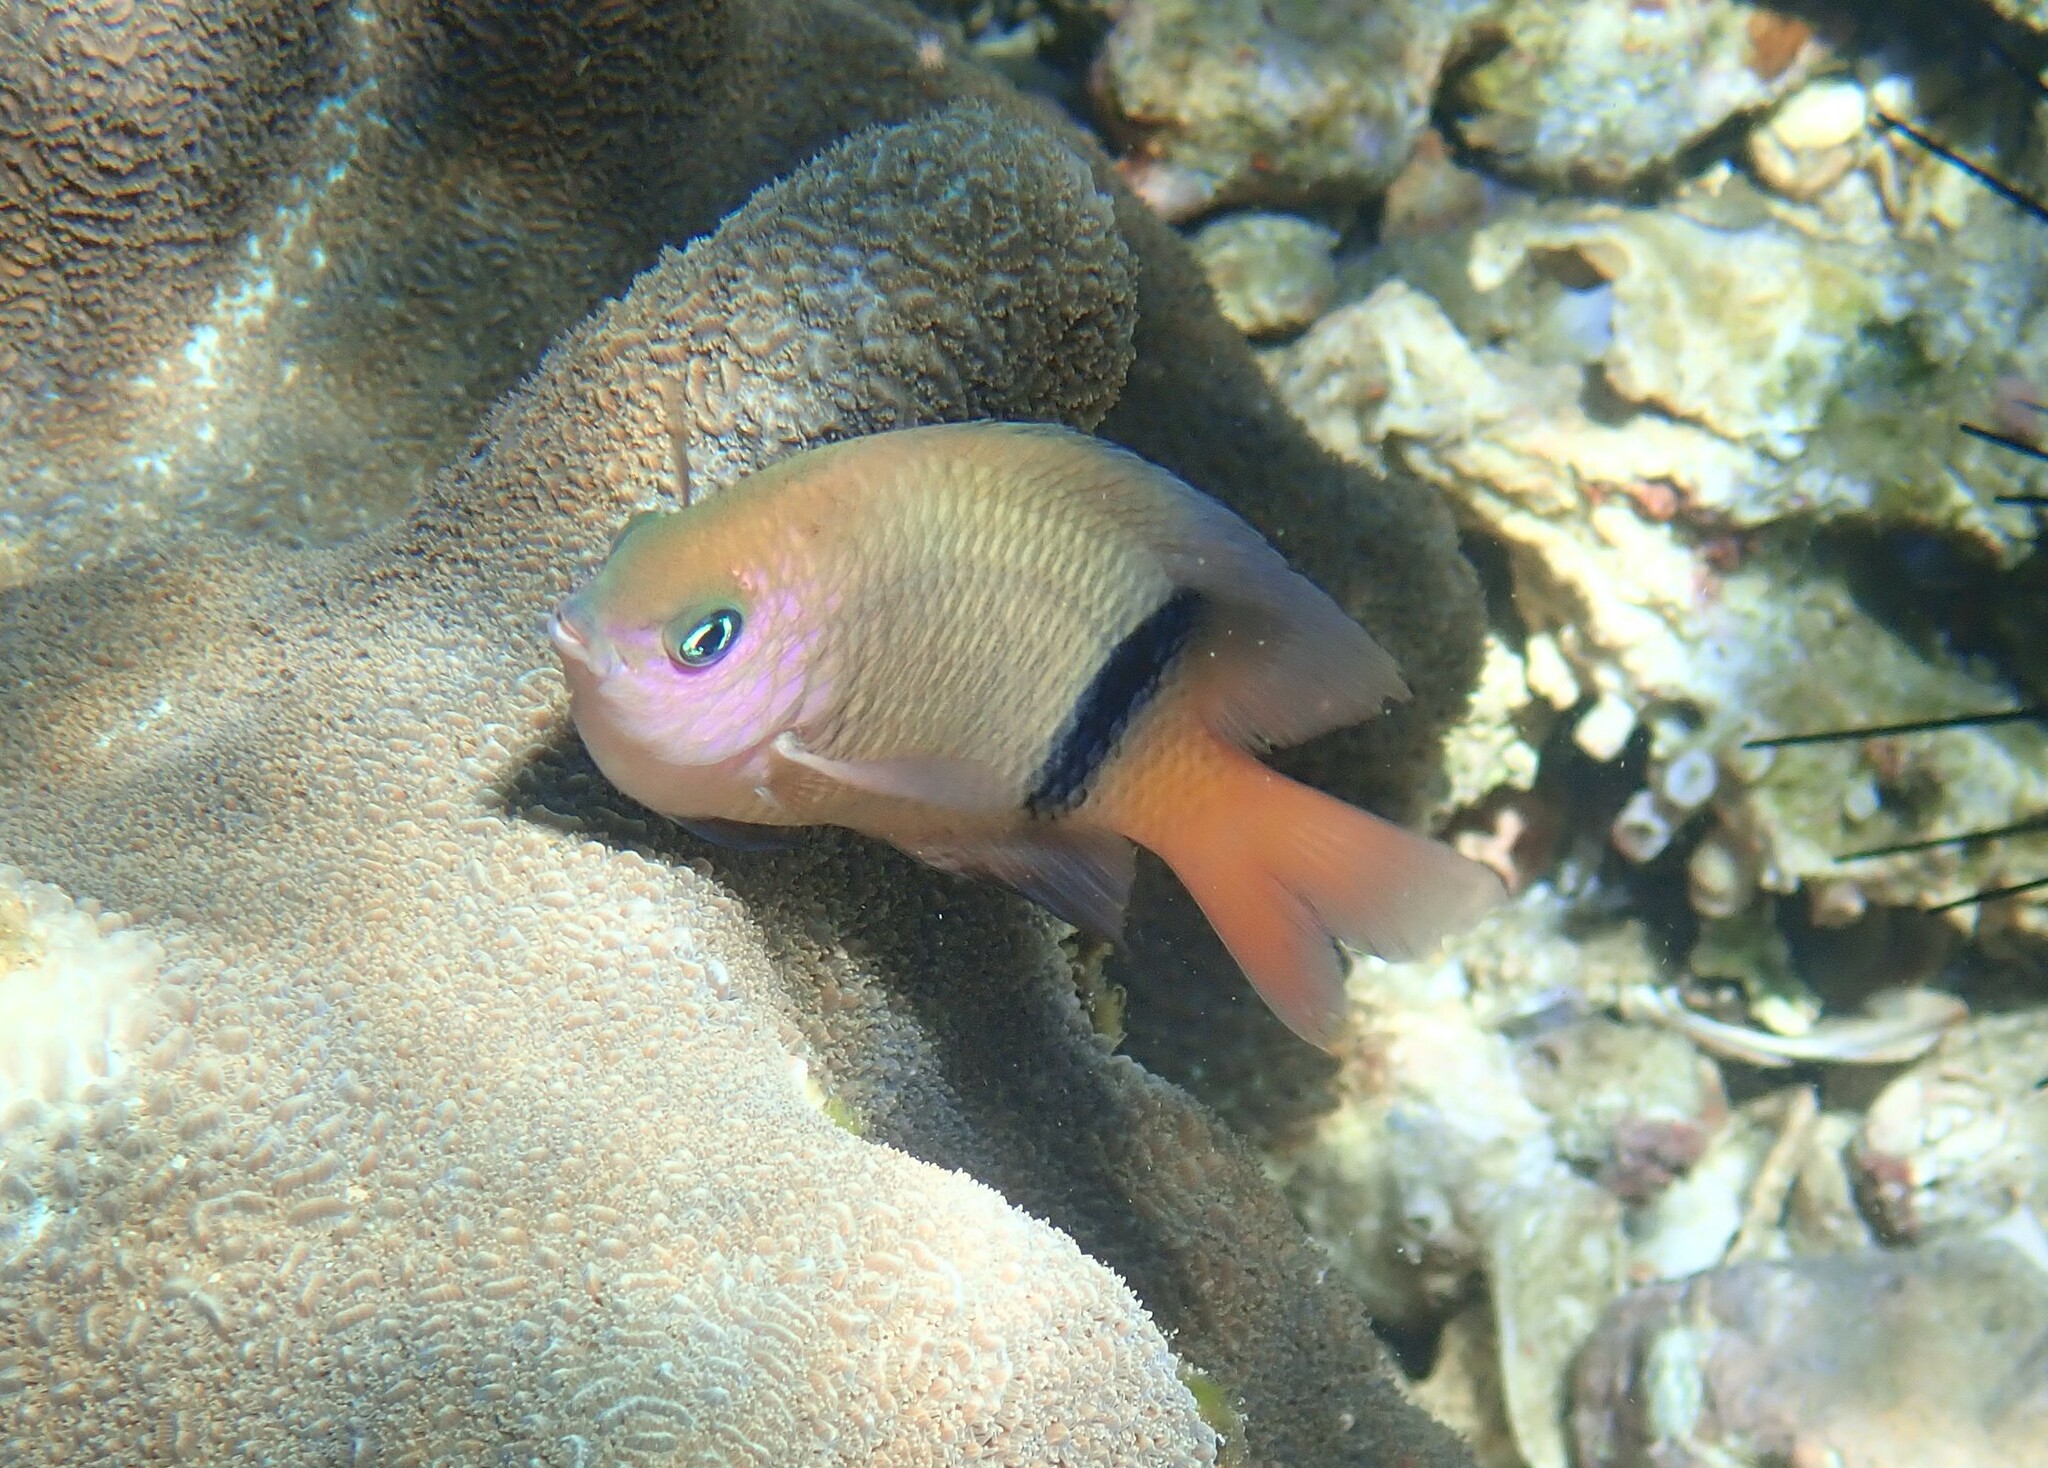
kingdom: Animalia
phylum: Chordata
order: Perciformes
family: Pomacentridae
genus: Plectroglyphidodon
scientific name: Plectroglyphidodon dickii
